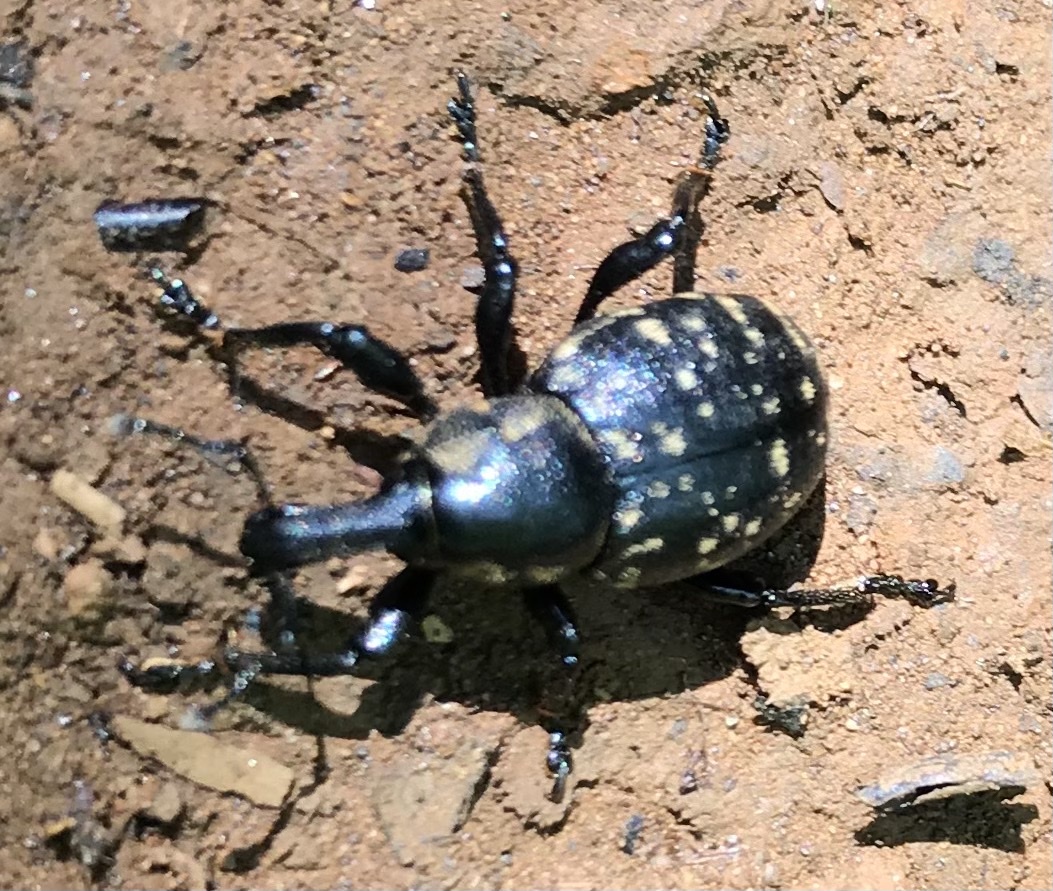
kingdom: Animalia
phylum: Arthropoda
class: Insecta
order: Coleoptera
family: Curculionidae
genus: Liparus
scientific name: Liparus germanus
